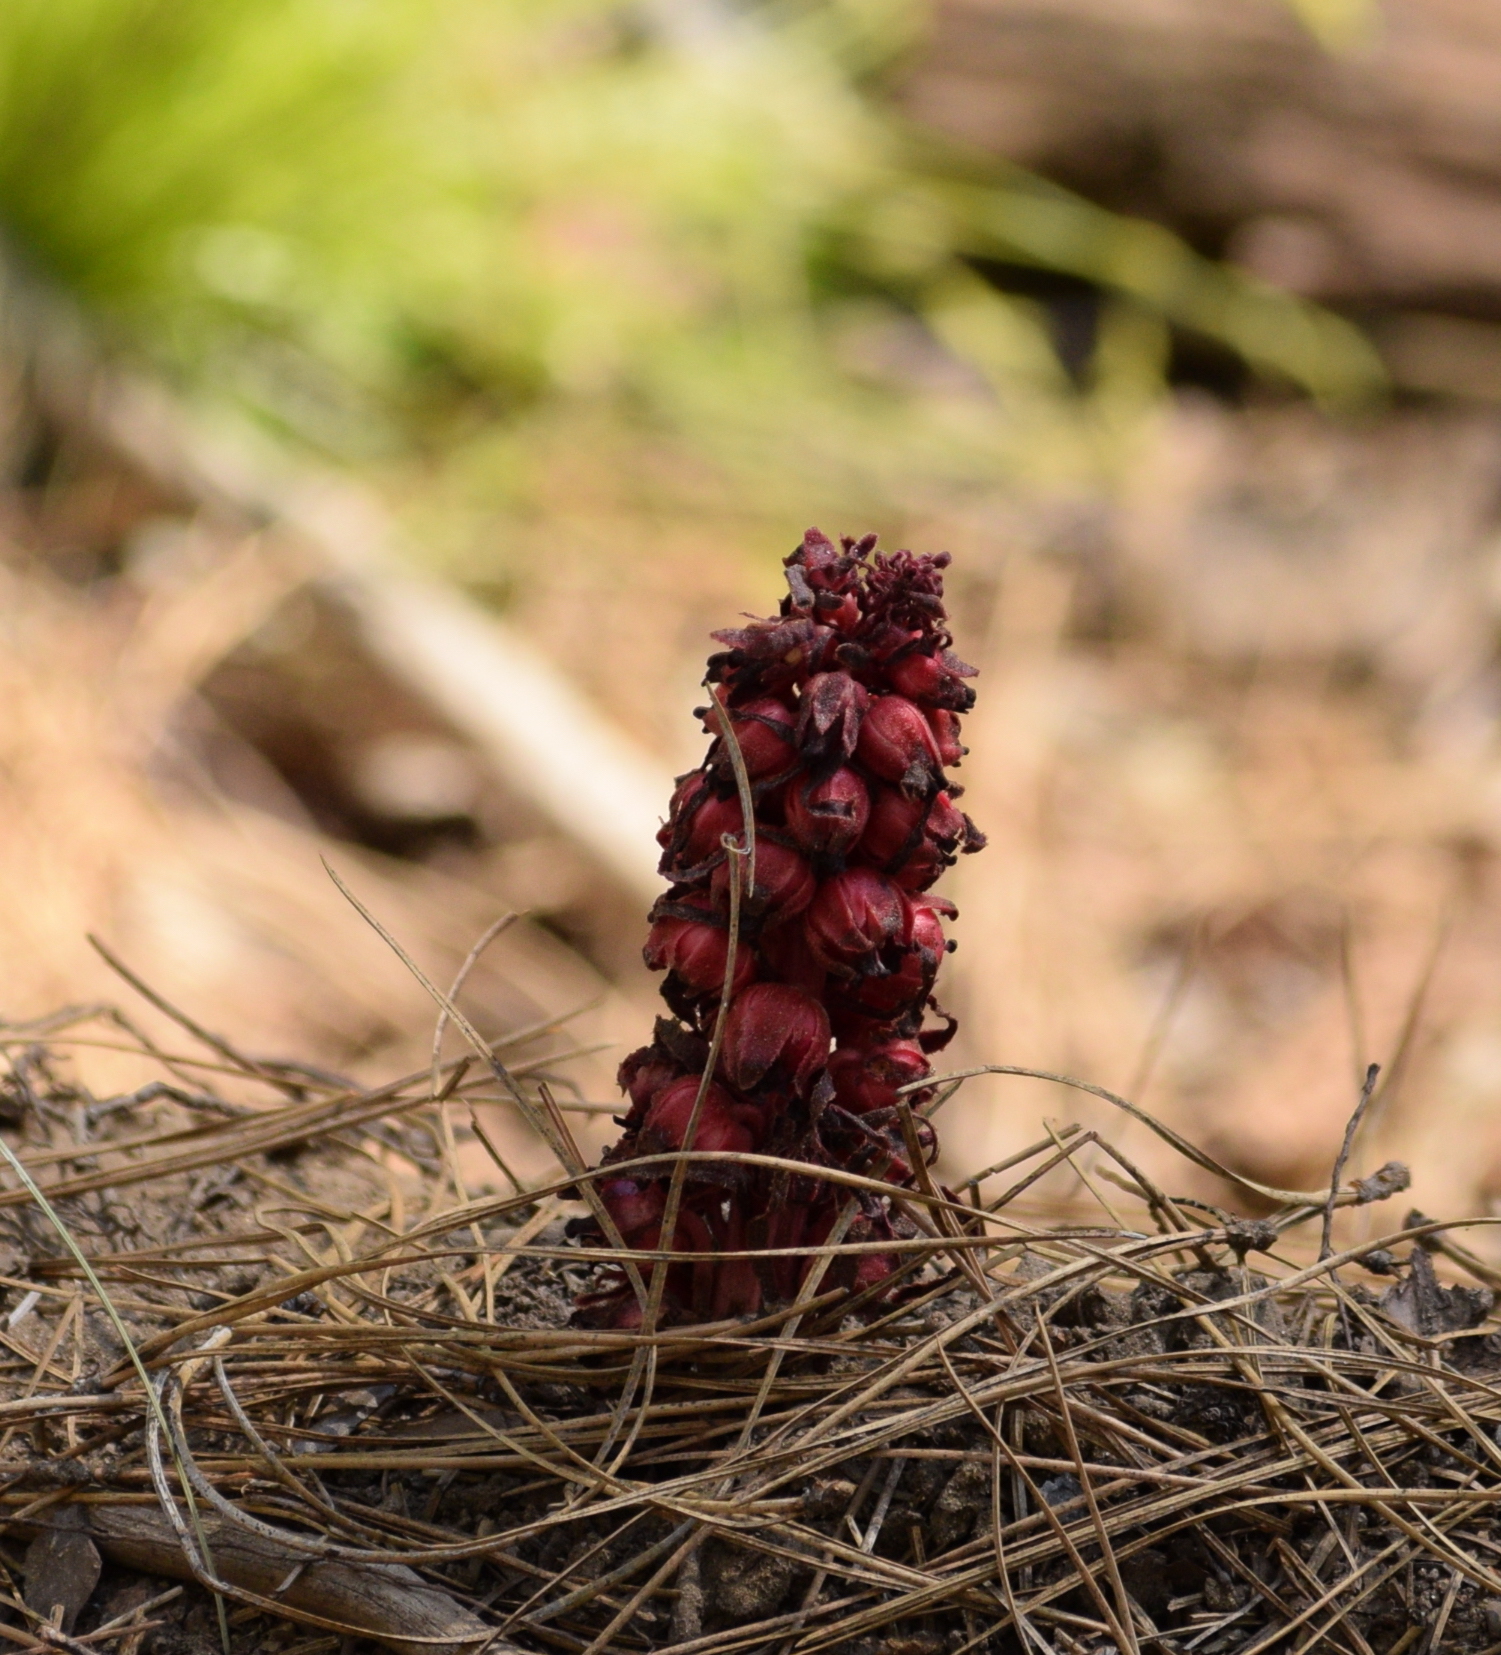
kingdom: Plantae
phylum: Tracheophyta
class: Magnoliopsida
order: Ericales
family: Ericaceae
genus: Sarcodes
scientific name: Sarcodes sanguinea
